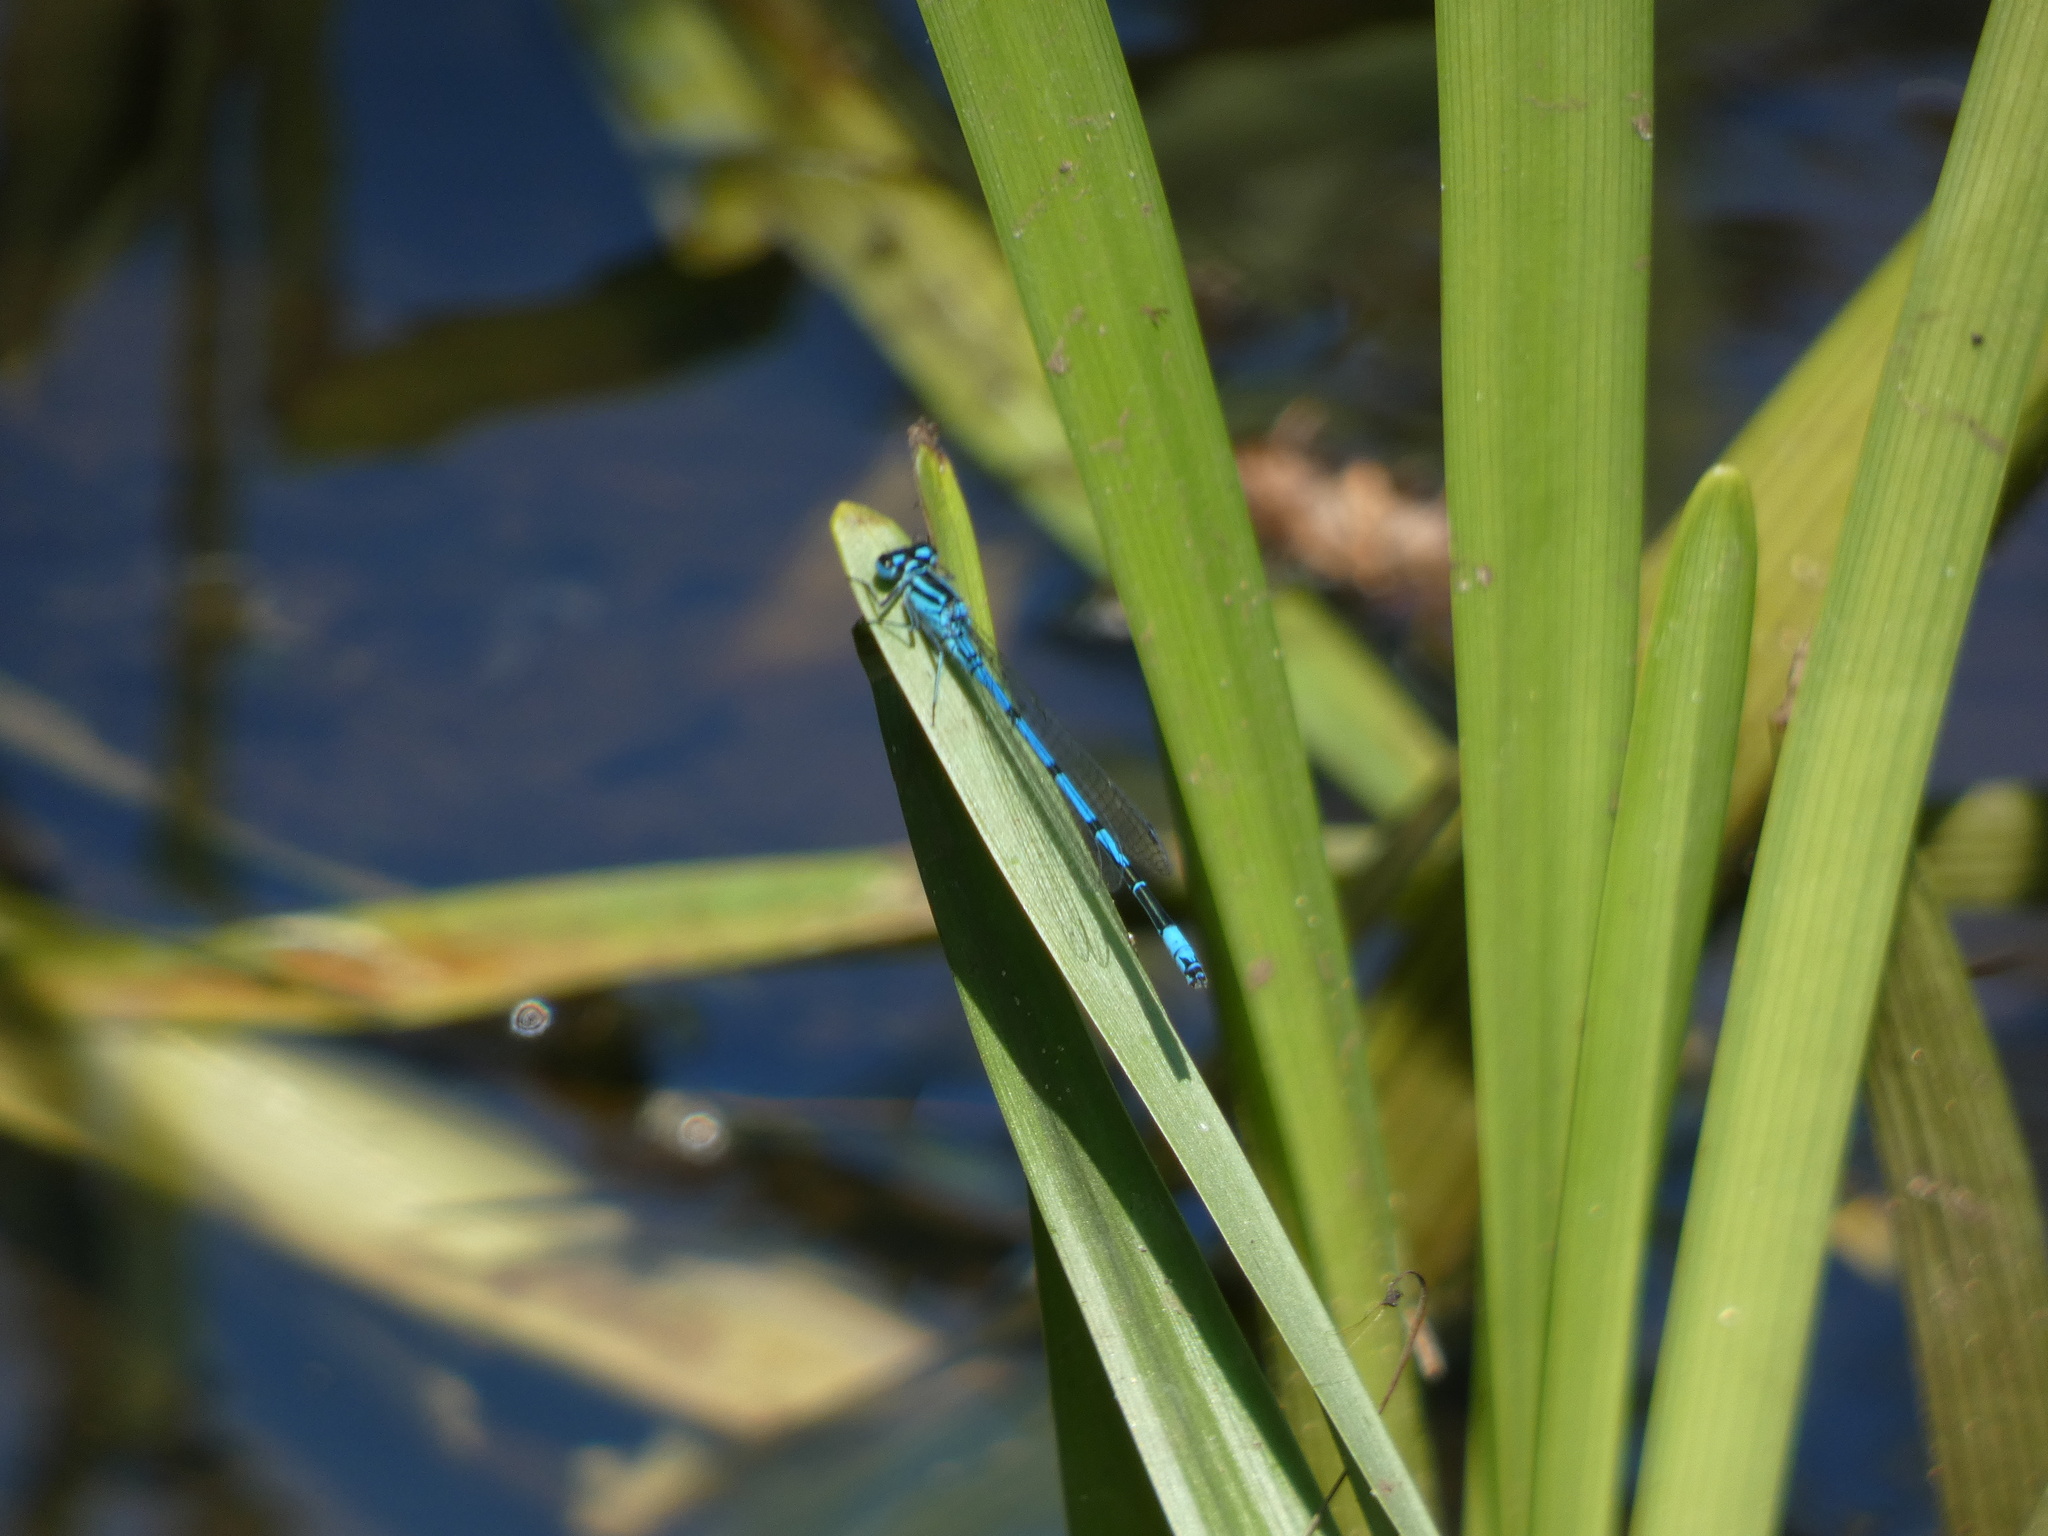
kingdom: Animalia
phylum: Arthropoda
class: Insecta
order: Odonata
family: Coenagrionidae
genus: Coenagrion
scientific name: Coenagrion puella
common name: Azure damselfly
